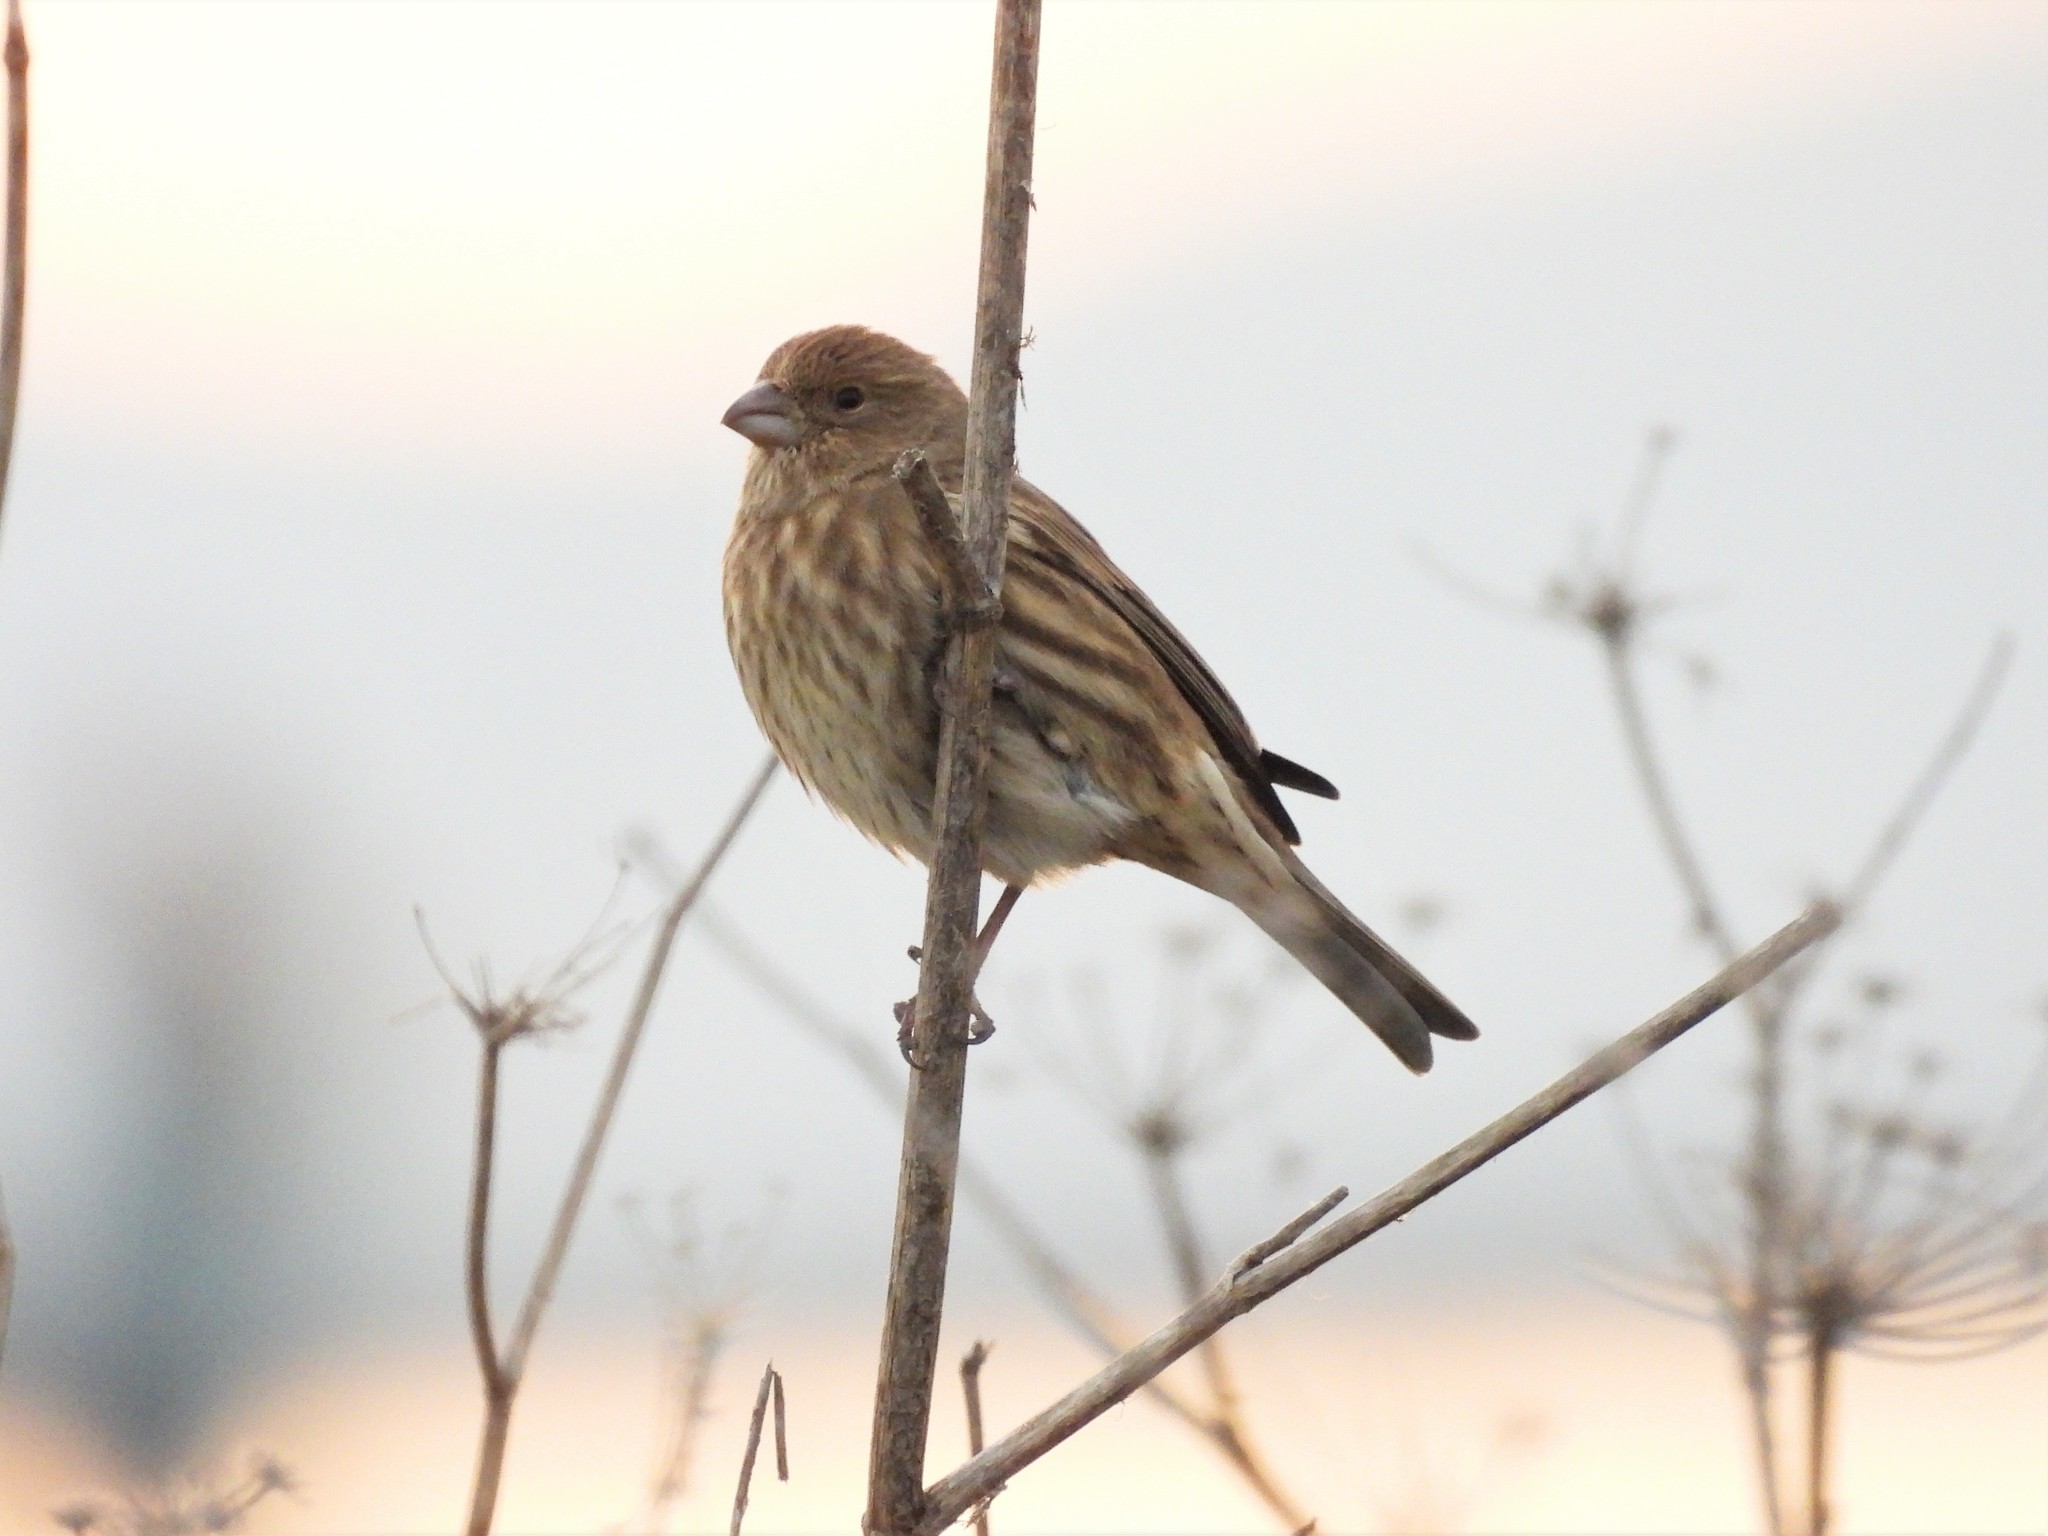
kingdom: Animalia
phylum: Chordata
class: Aves
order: Passeriformes
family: Fringillidae
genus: Haemorhous
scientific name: Haemorhous mexicanus
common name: House finch
